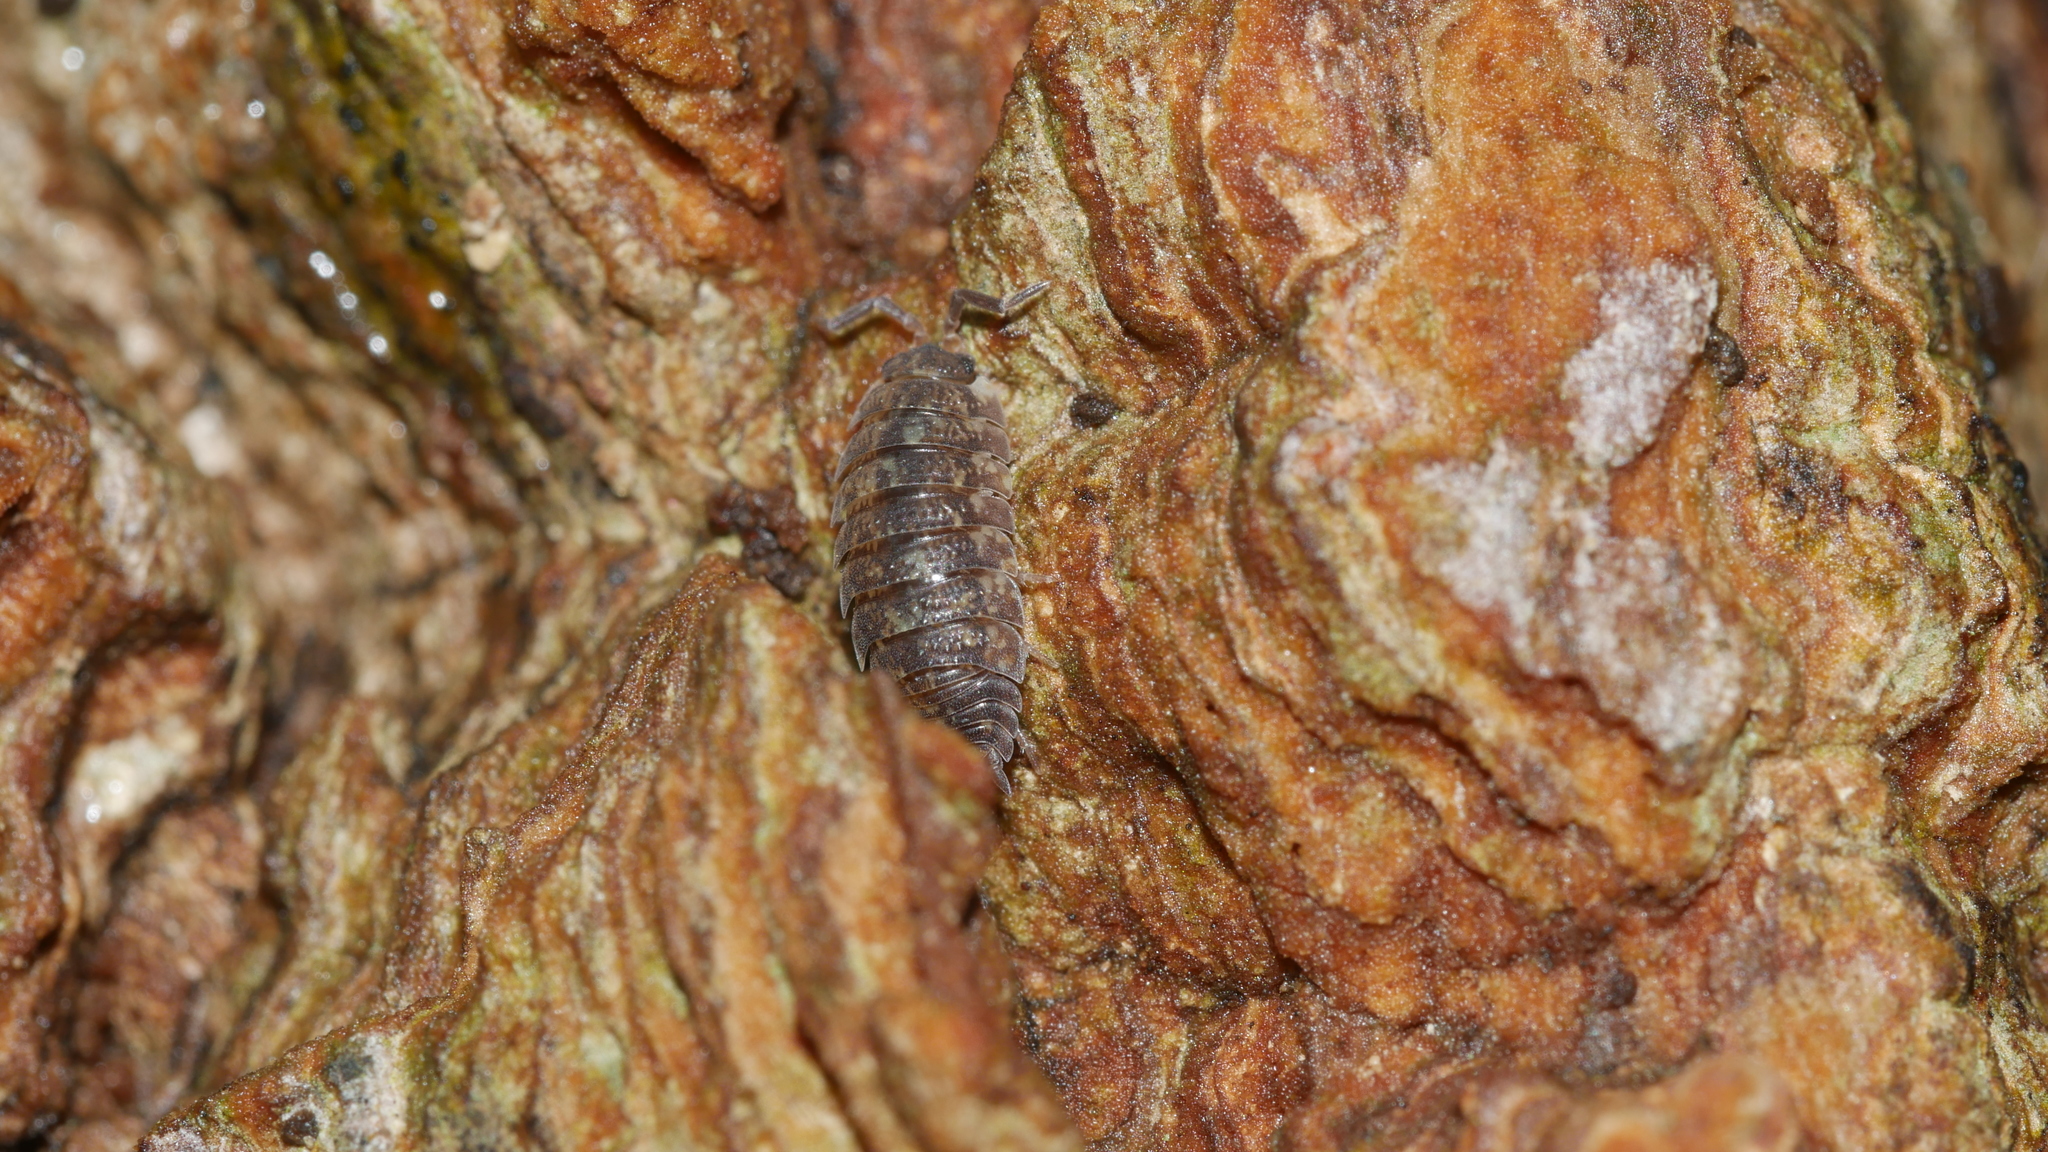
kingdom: Animalia
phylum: Arthropoda
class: Malacostraca
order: Isopoda
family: Porcellionidae
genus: Porcellio
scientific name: Porcellio scaber
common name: Common rough woodlouse
